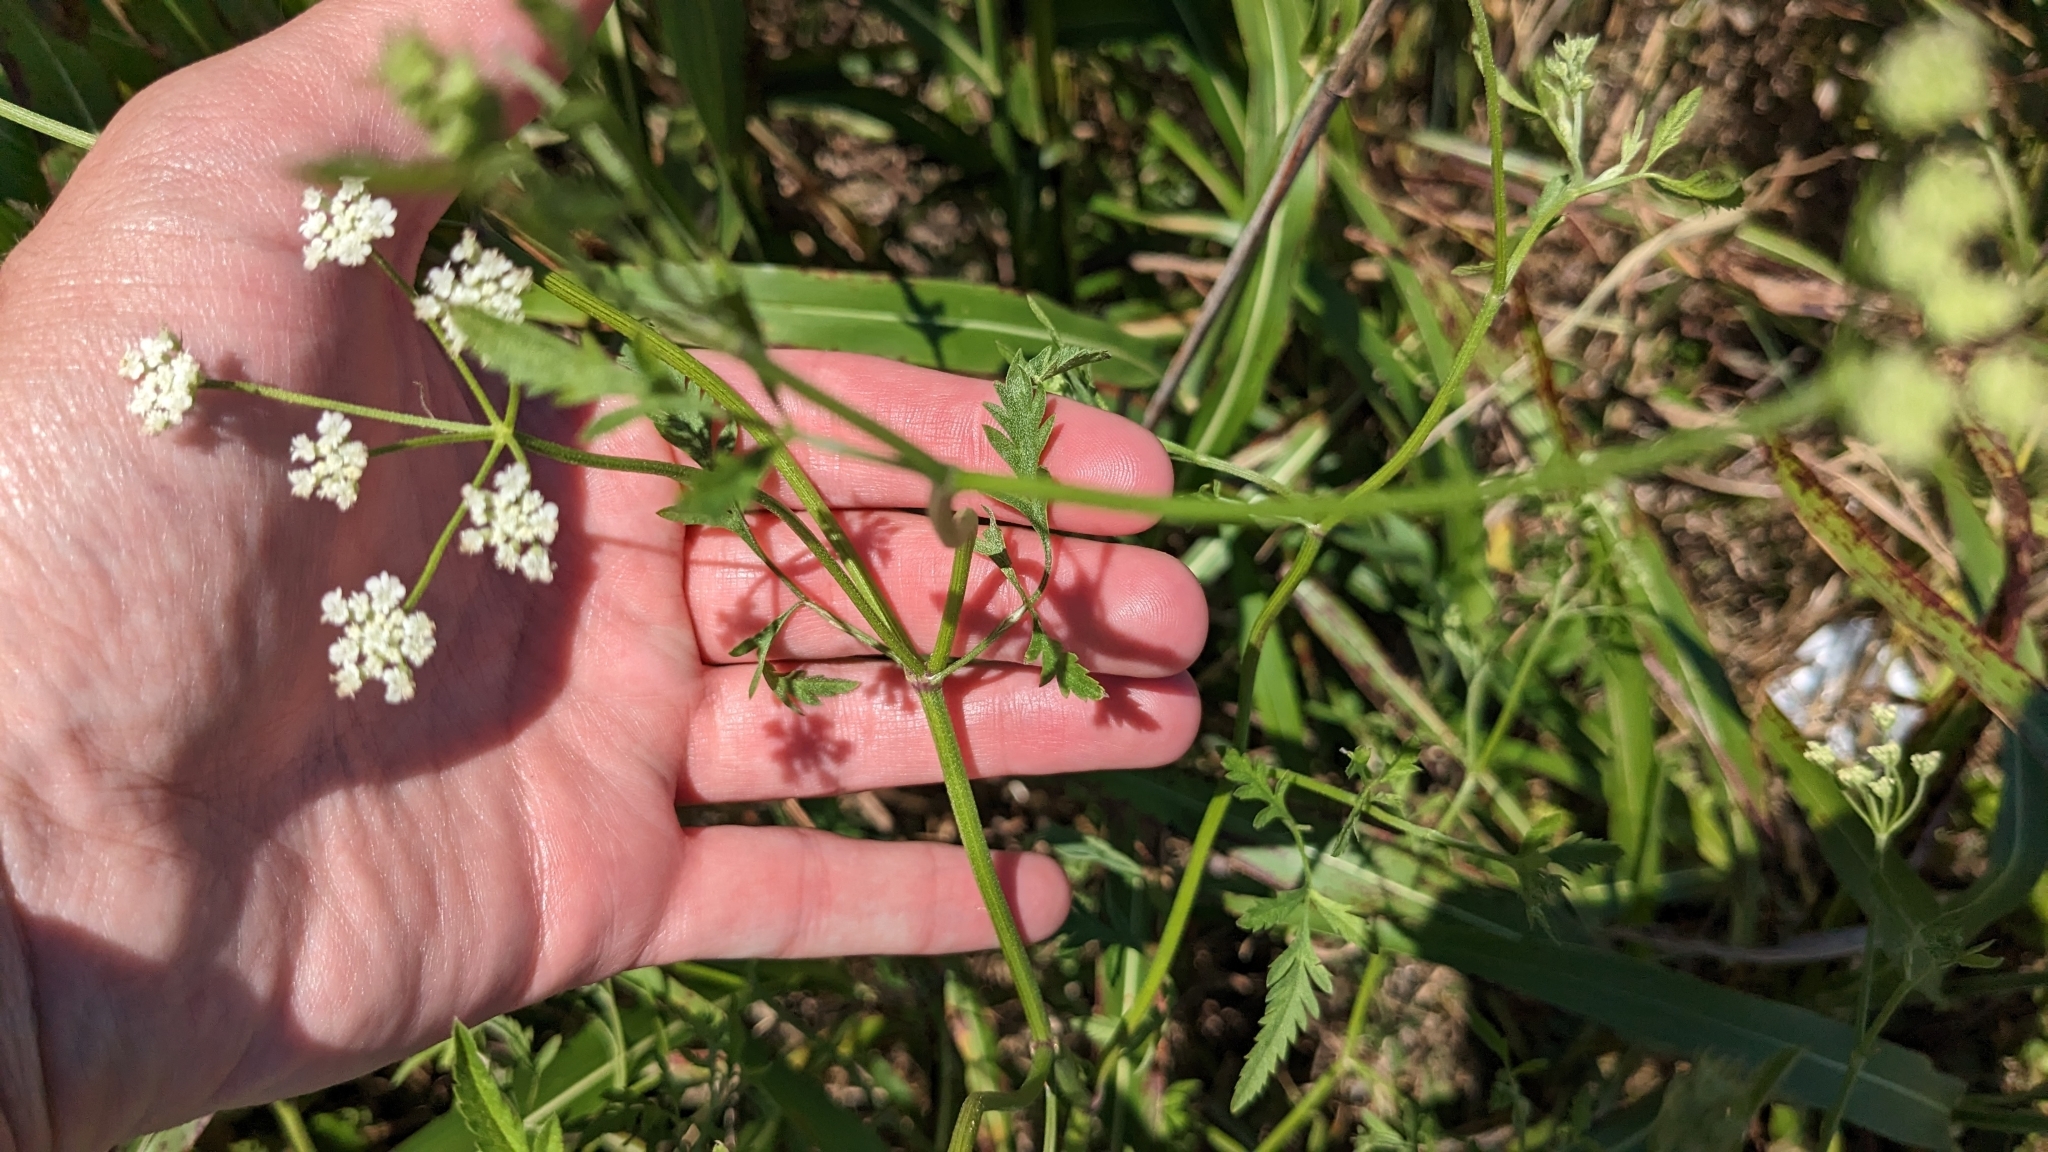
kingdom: Plantae
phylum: Tracheophyta
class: Magnoliopsida
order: Apiales
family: Apiaceae
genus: Torilis
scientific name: Torilis arvensis
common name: Spreading hedge-parsley
